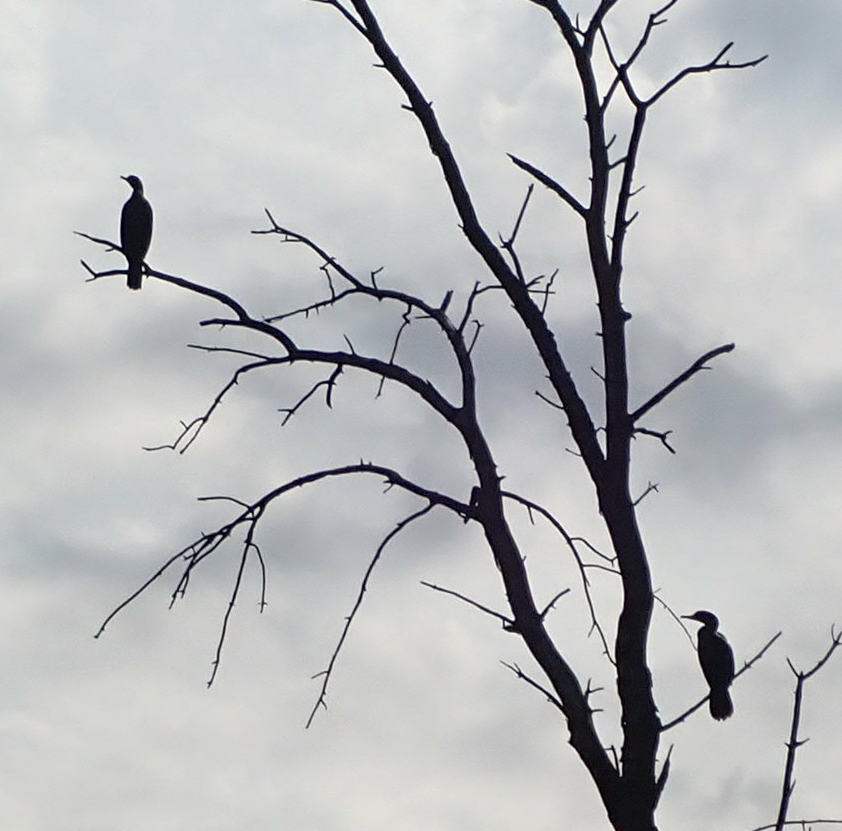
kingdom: Animalia
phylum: Chordata
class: Aves
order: Suliformes
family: Phalacrocoracidae
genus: Phalacrocorax
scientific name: Phalacrocorax auritus
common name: Double-crested cormorant
